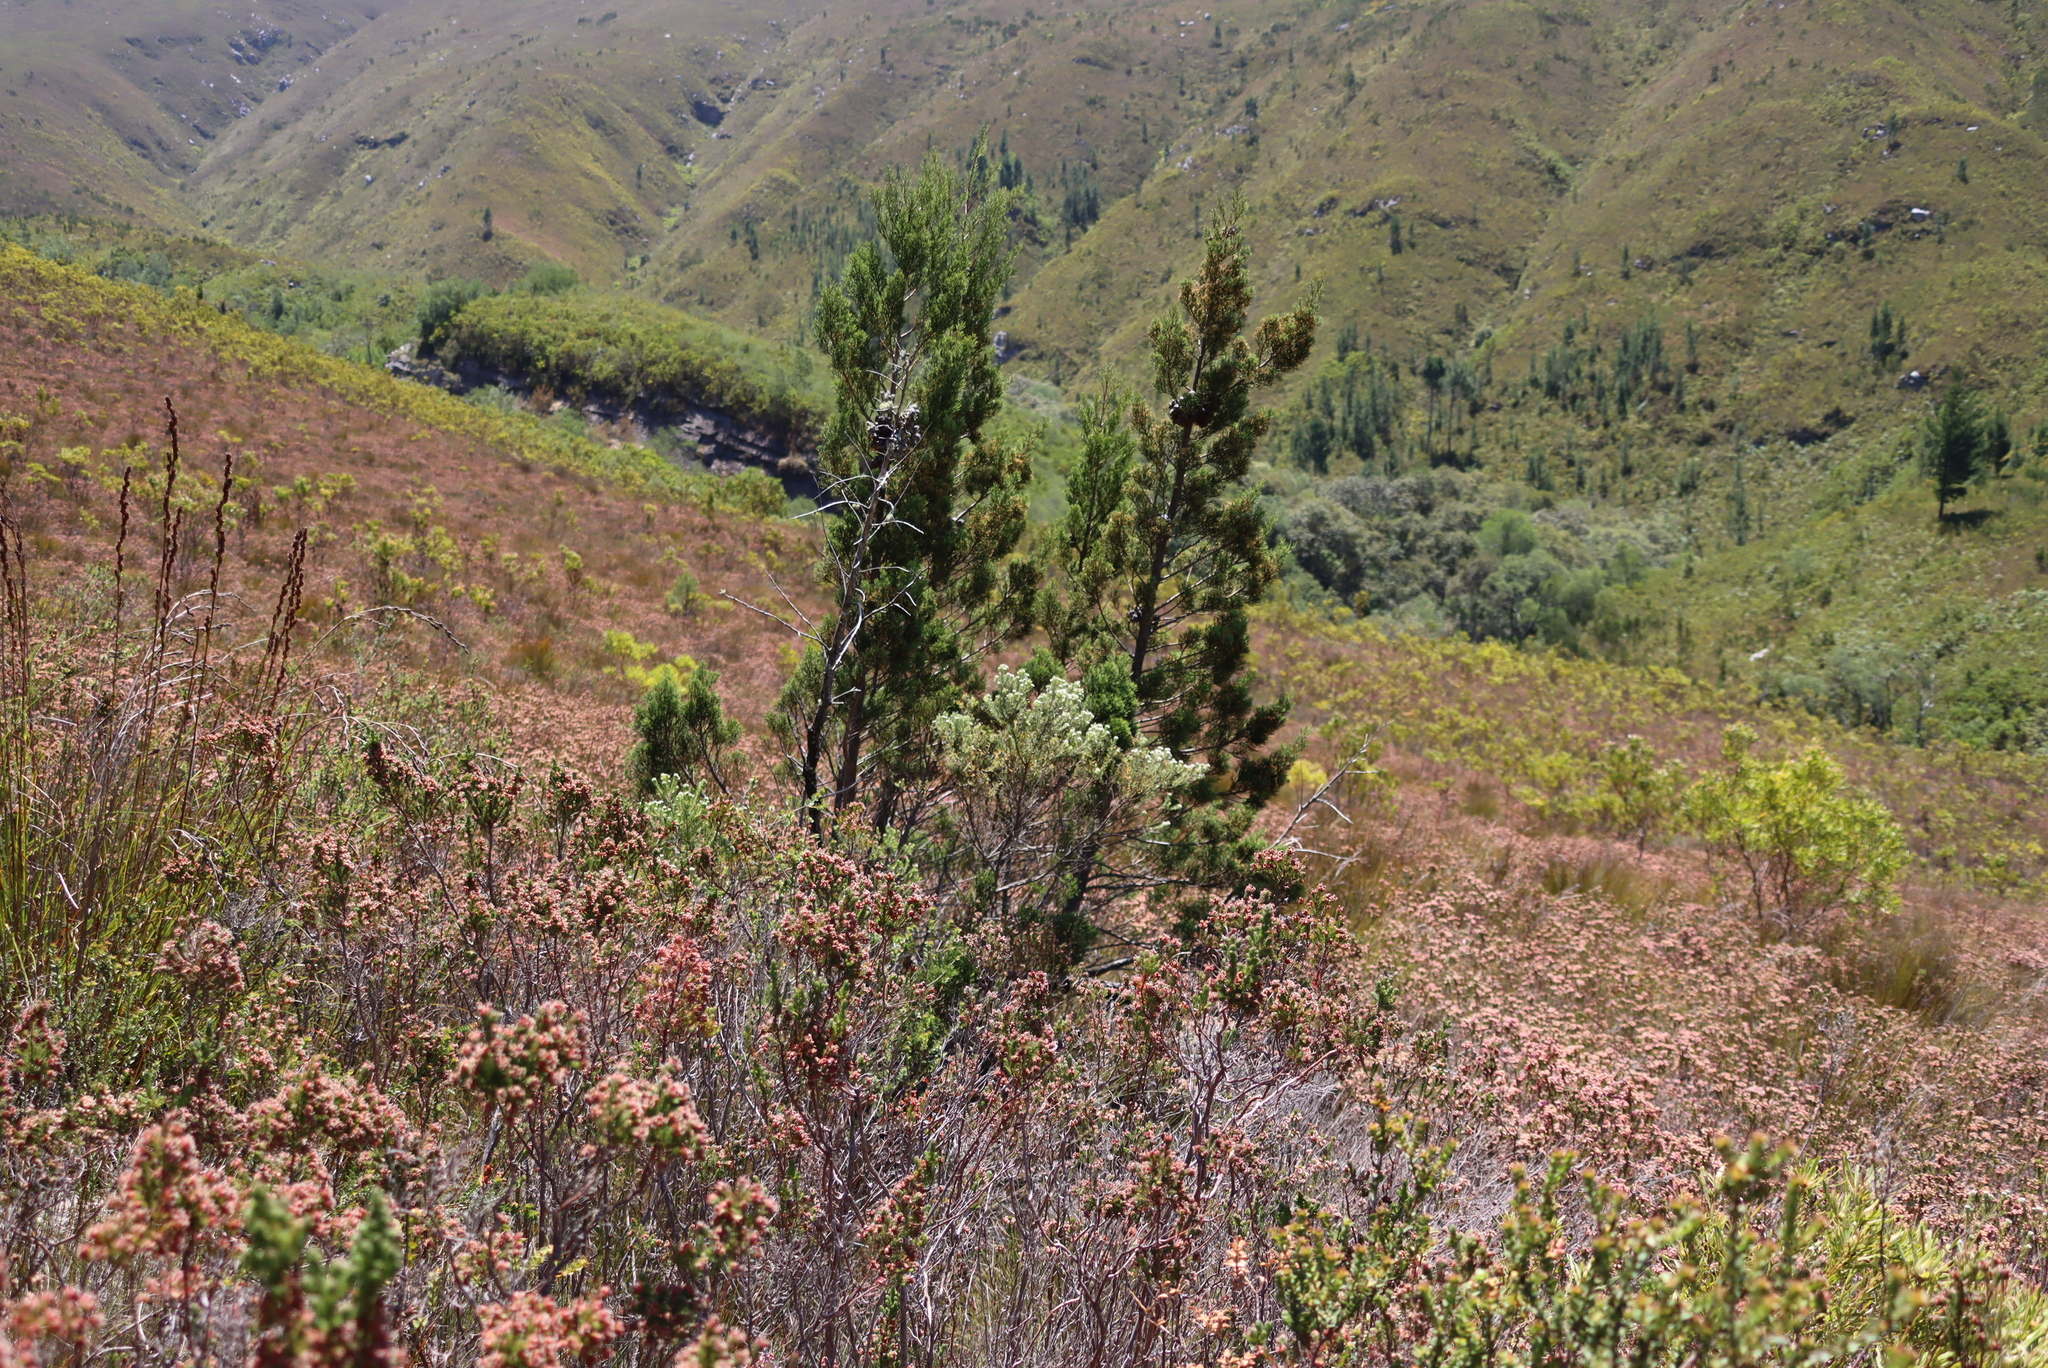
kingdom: Plantae
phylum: Tracheophyta
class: Pinopsida
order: Pinales
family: Cupressaceae
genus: Widdringtonia
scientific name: Widdringtonia nodiflora
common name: Cape cypress
